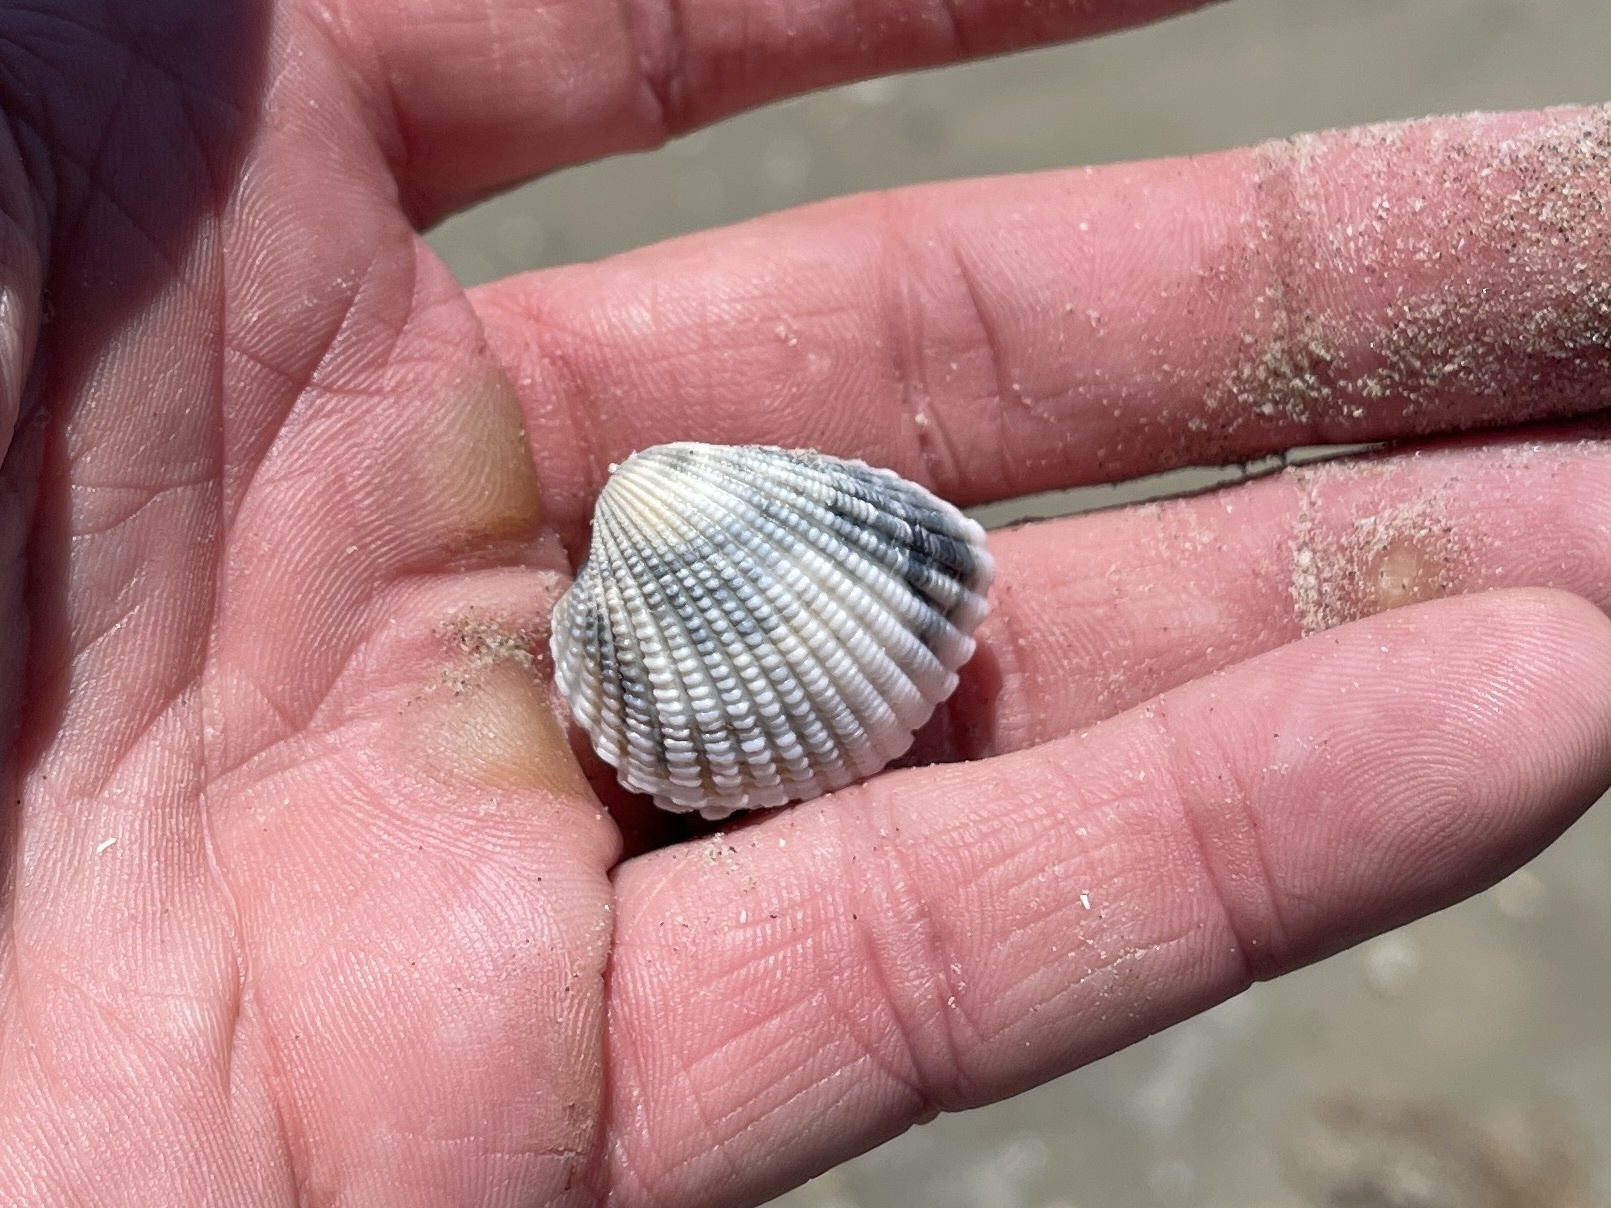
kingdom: Animalia
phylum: Mollusca
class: Bivalvia
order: Arcida
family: Arcidae
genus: Anadara
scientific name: Anadara chemnitzii
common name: Chemnitz's triangular ark
